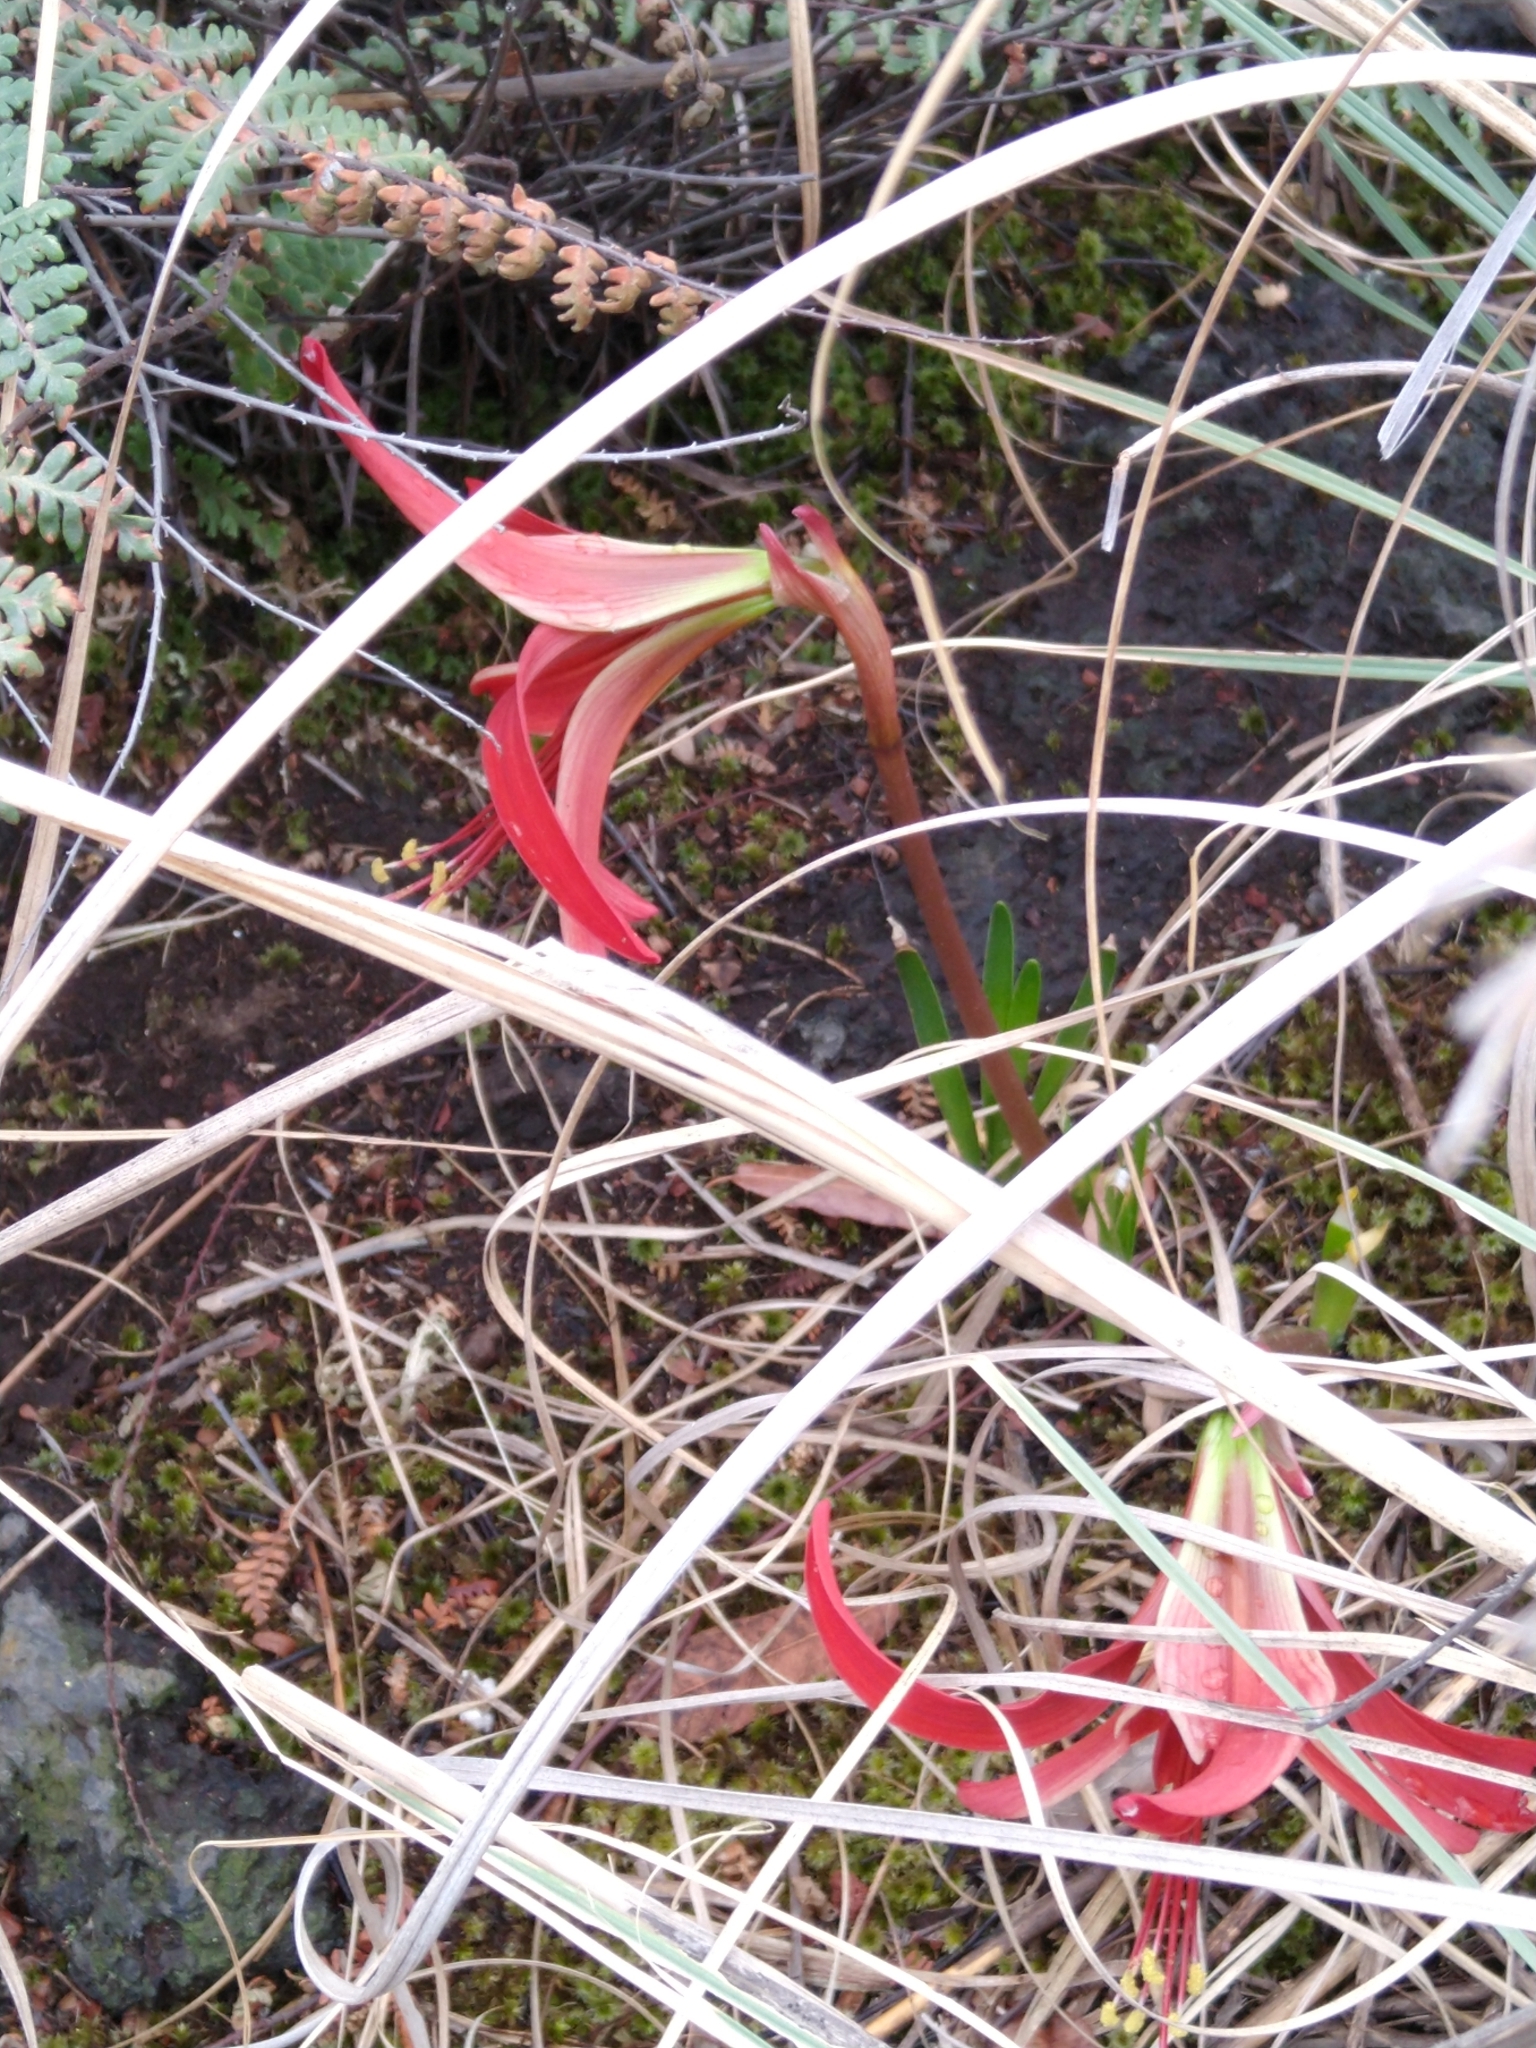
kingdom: Plantae
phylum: Tracheophyta
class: Liliopsida
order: Asparagales
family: Amaryllidaceae
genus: Sprekelia
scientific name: Sprekelia formosissima
